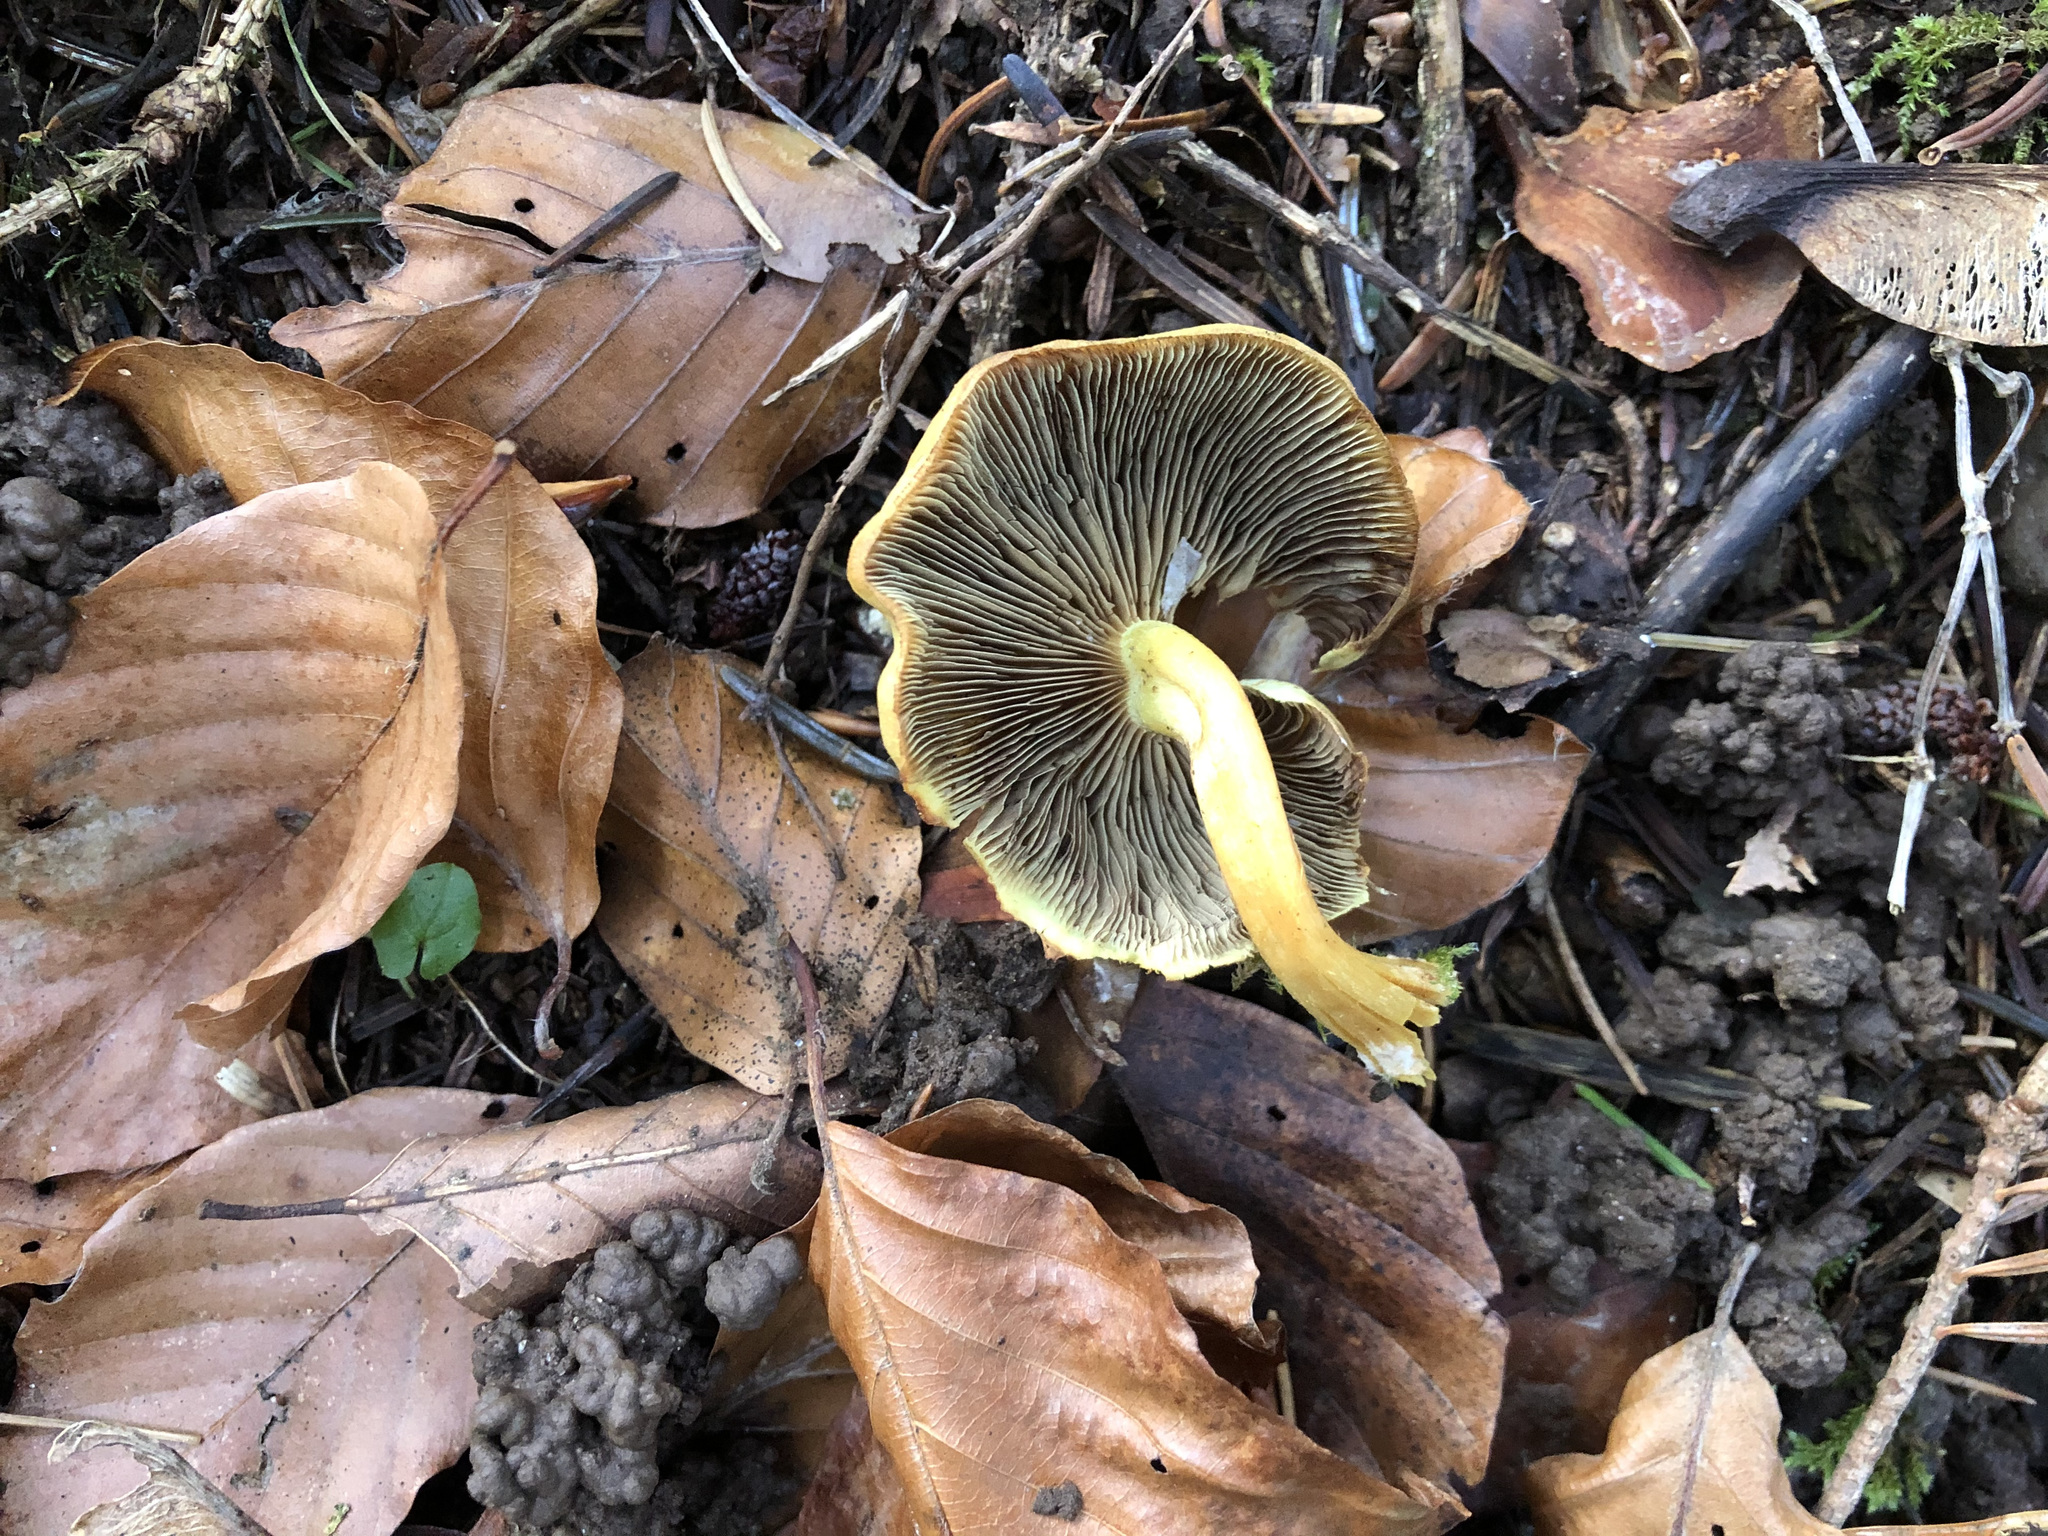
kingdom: Fungi
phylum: Basidiomycota
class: Agaricomycetes
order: Agaricales
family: Strophariaceae
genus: Hypholoma
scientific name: Hypholoma fasciculare
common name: Sulphur tuft
